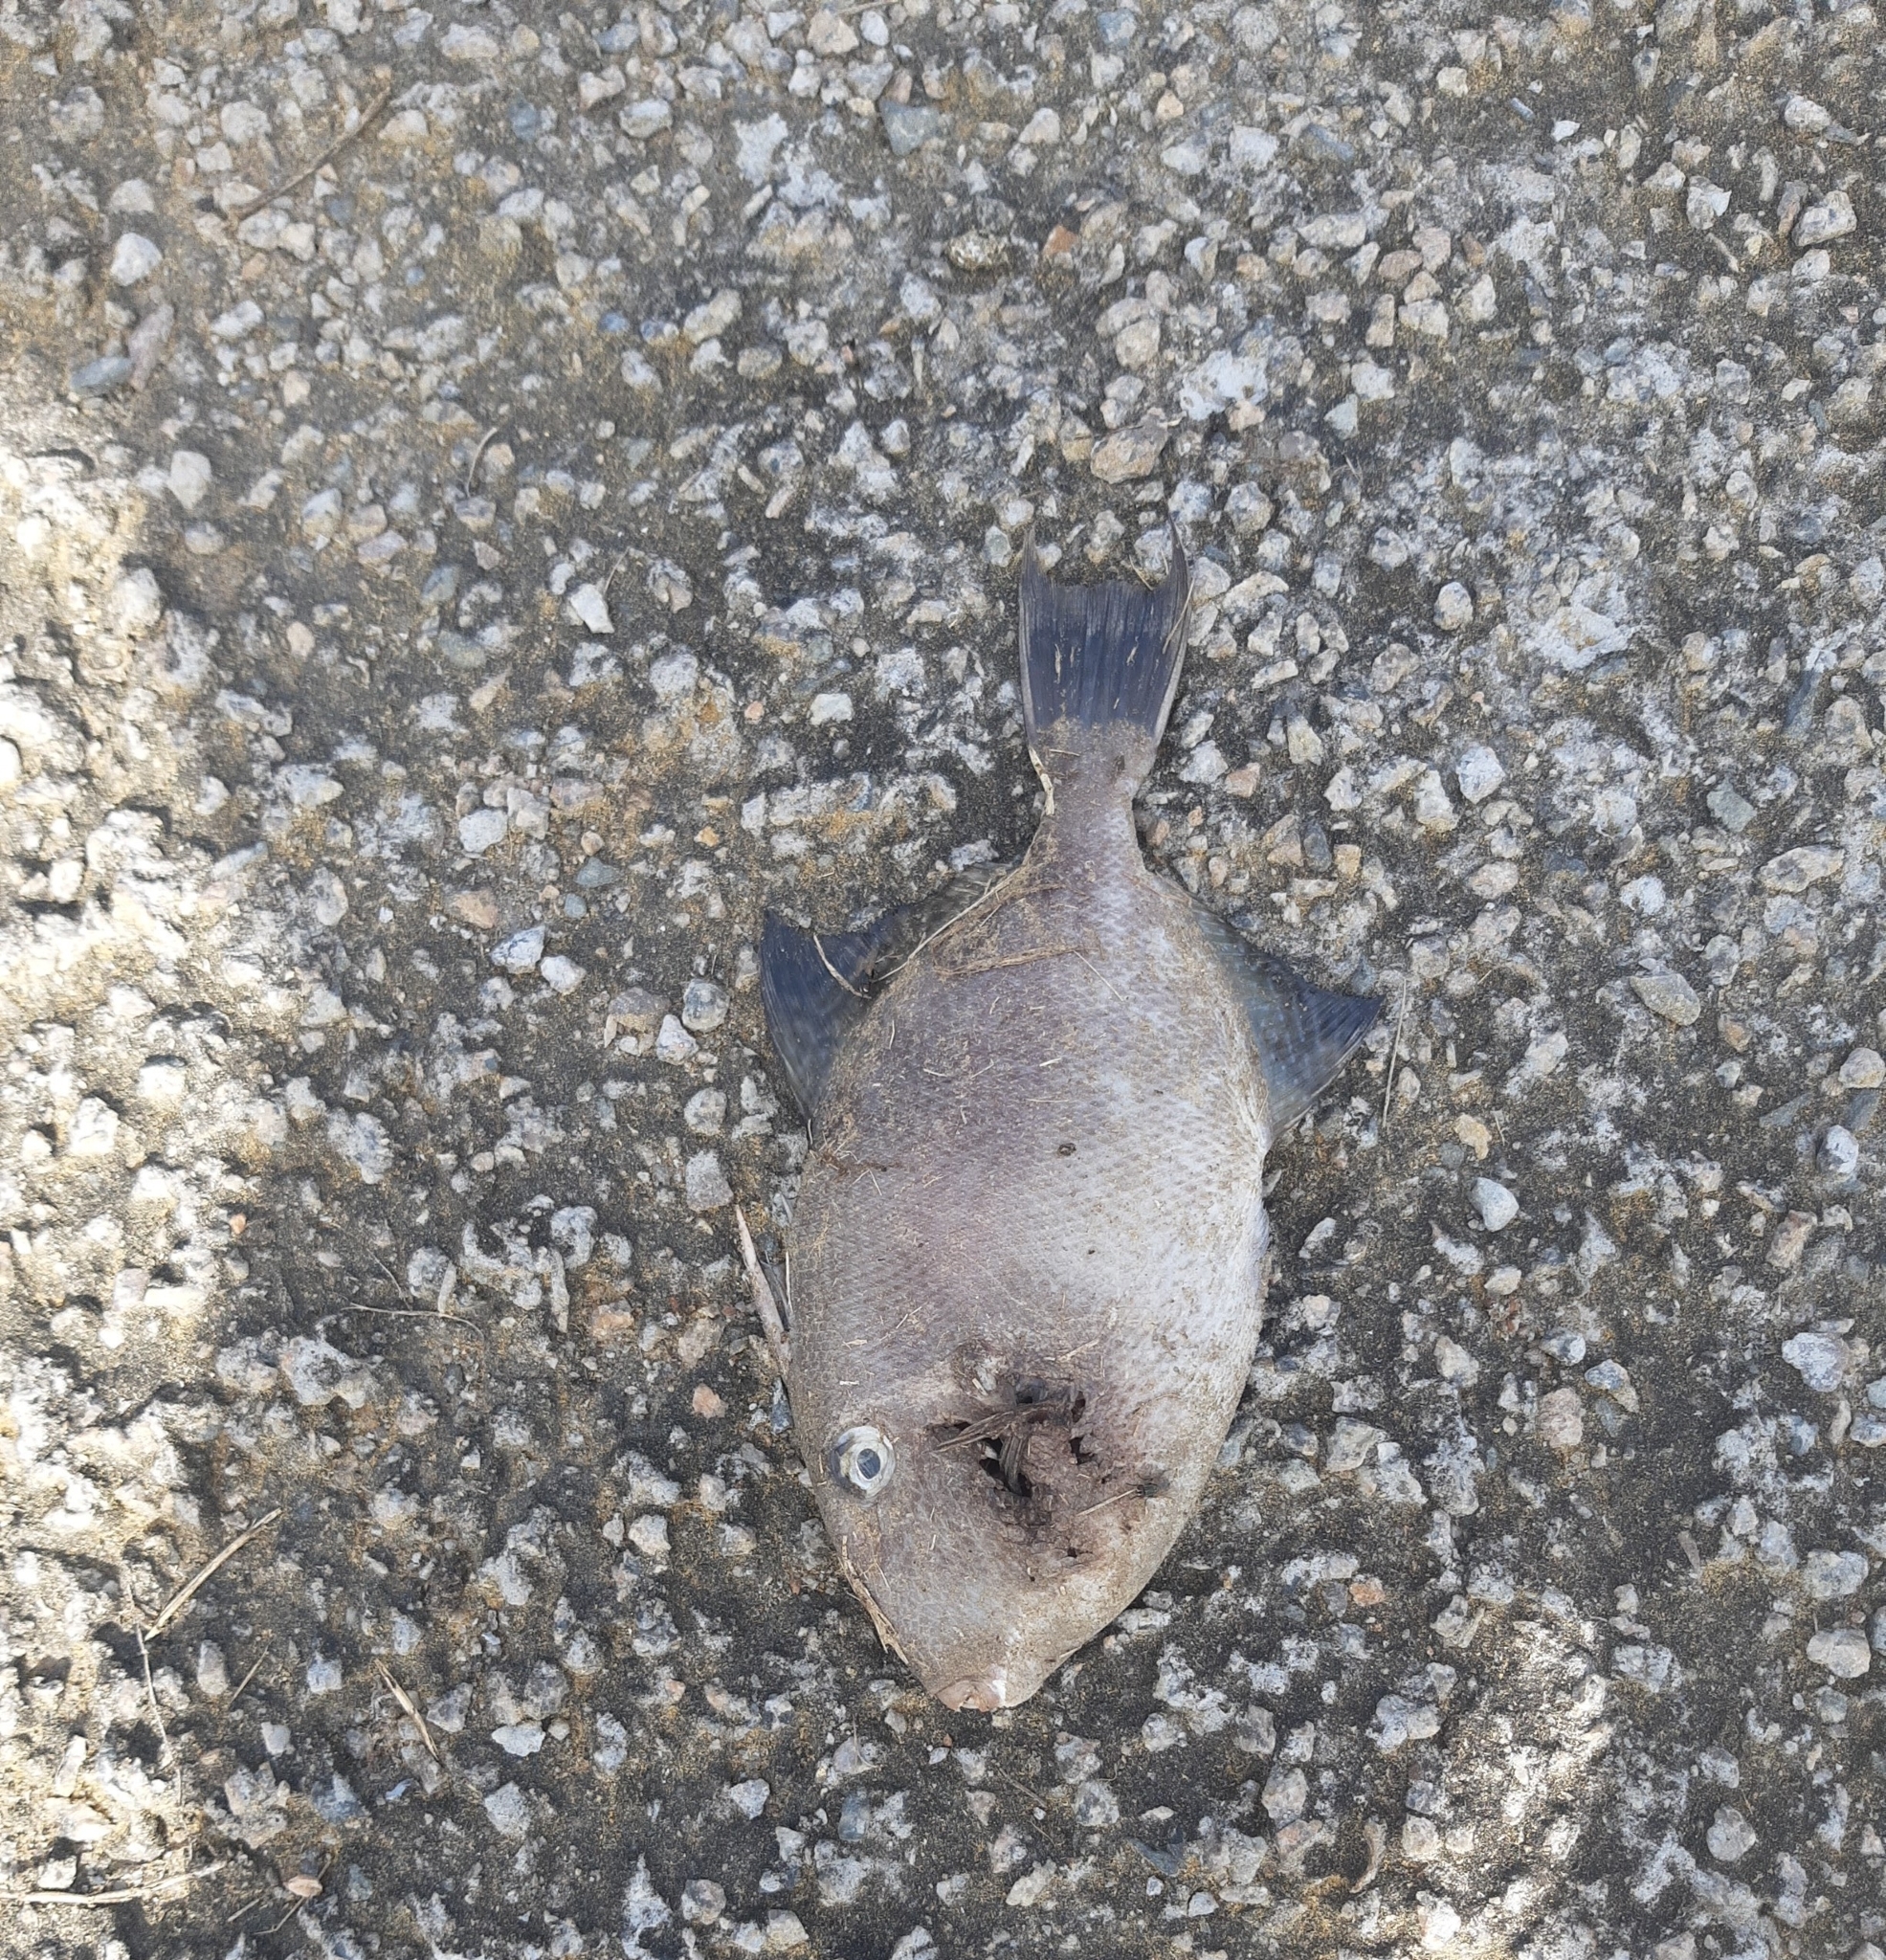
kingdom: Animalia
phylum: Chordata
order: Tetraodontiformes
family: Balistidae
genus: Balistes
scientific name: Balistes capriscus
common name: Grey triggerfish
